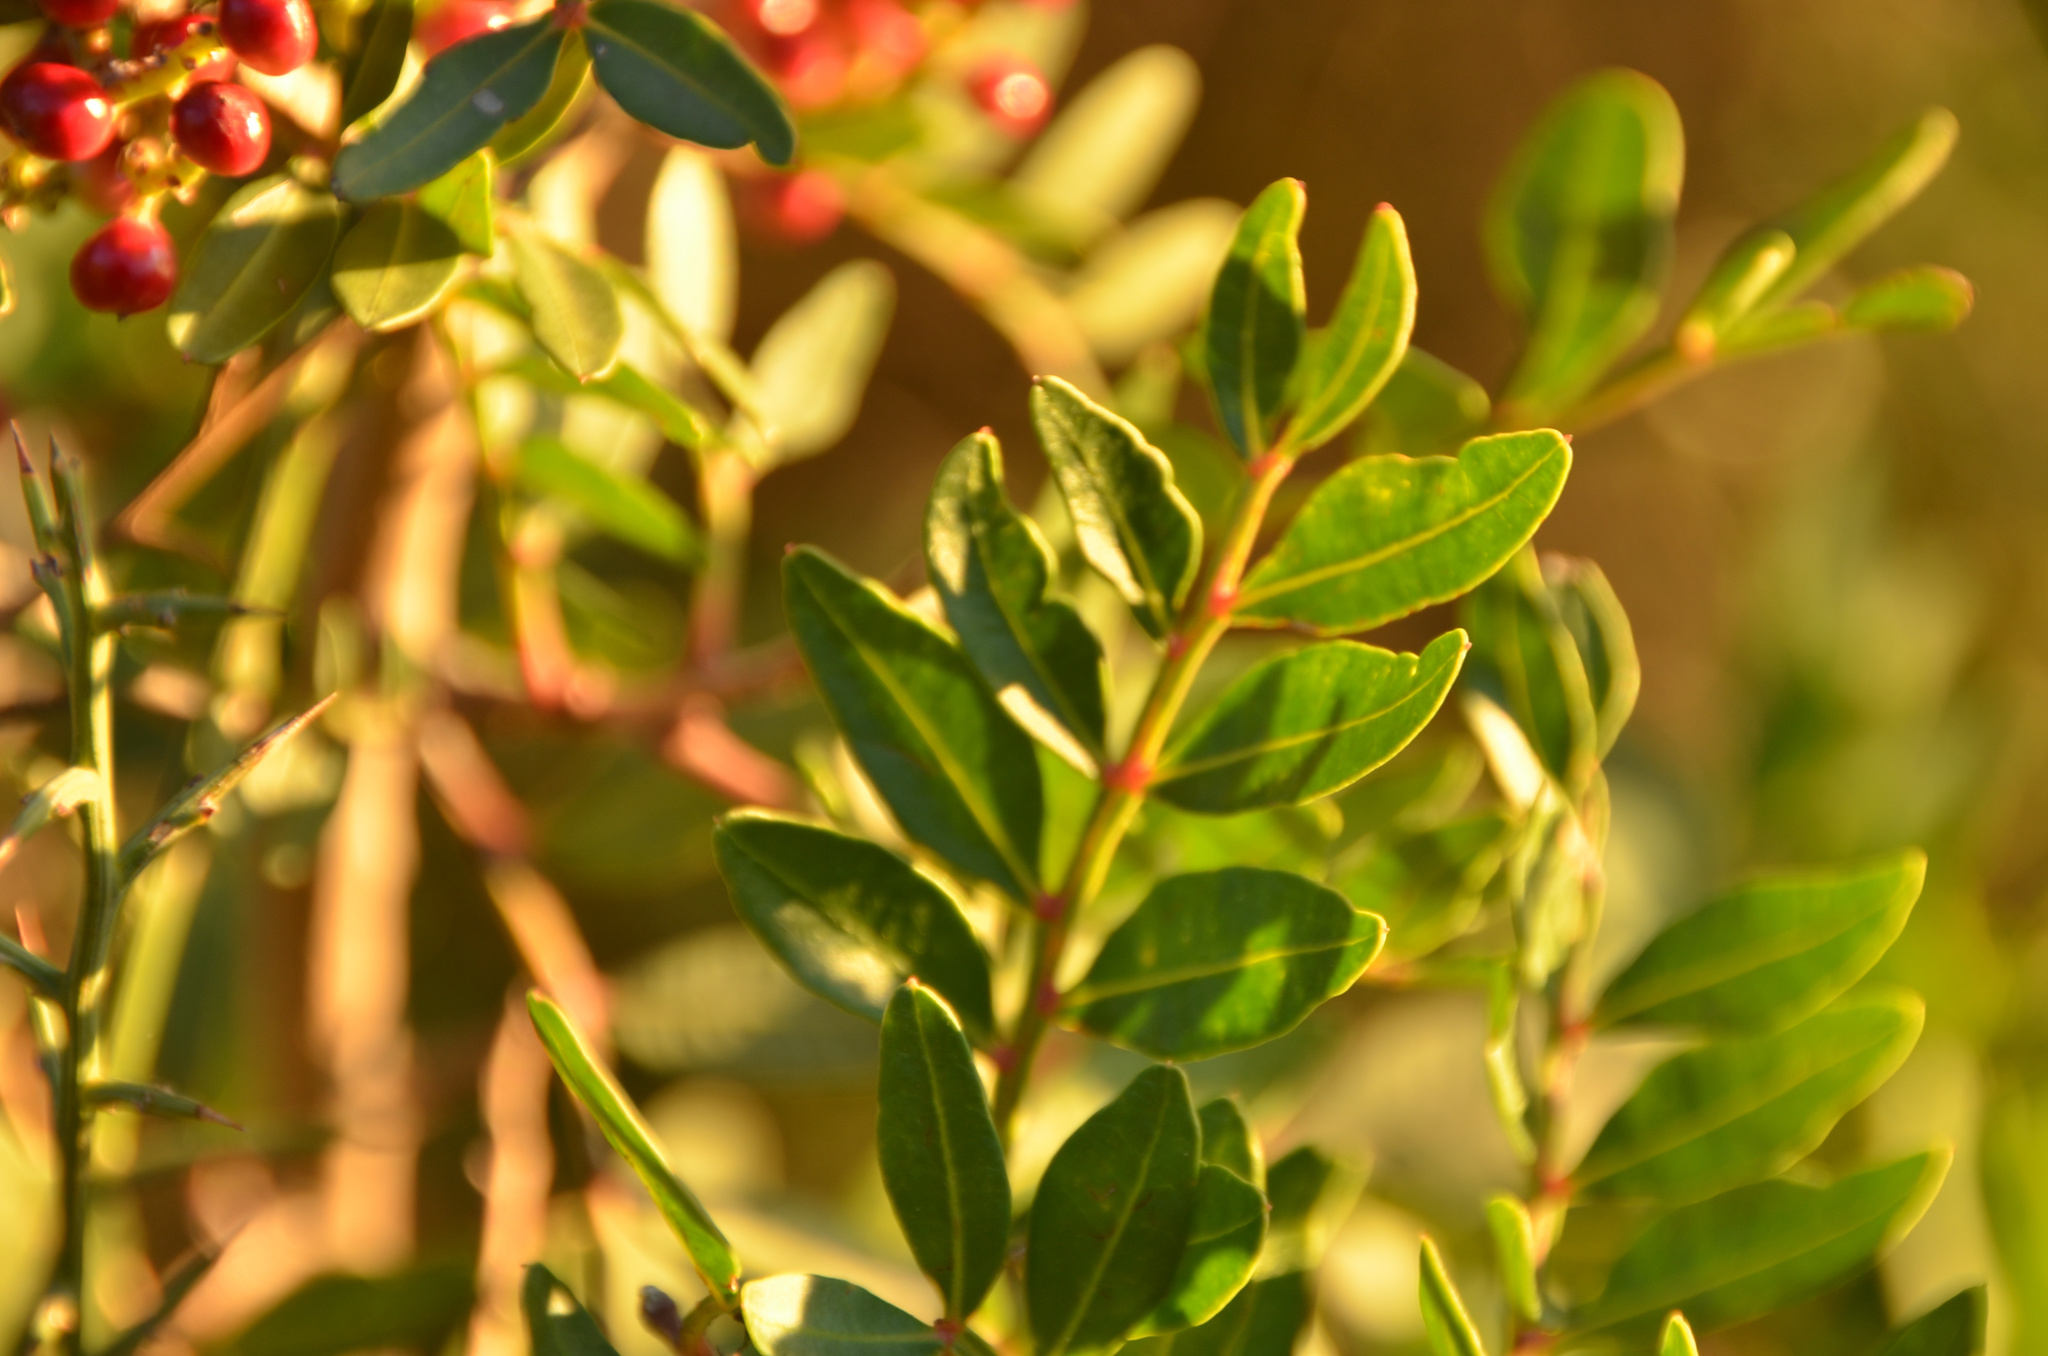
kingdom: Plantae
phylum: Tracheophyta
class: Magnoliopsida
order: Sapindales
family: Anacardiaceae
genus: Pistacia
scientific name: Pistacia lentiscus
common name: Lentisk
